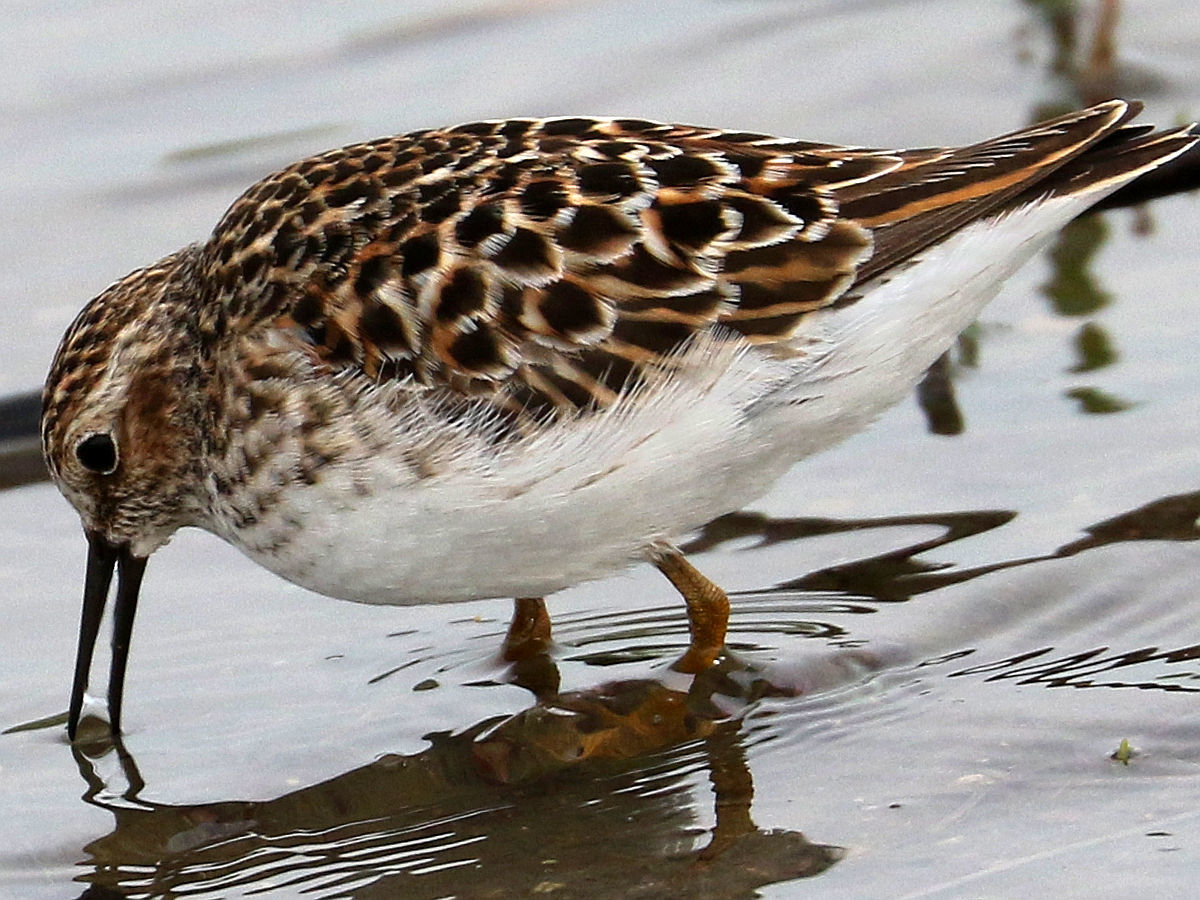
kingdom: Animalia
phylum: Chordata
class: Aves
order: Charadriiformes
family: Scolopacidae
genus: Calidris
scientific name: Calidris minutilla
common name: Least sandpiper
